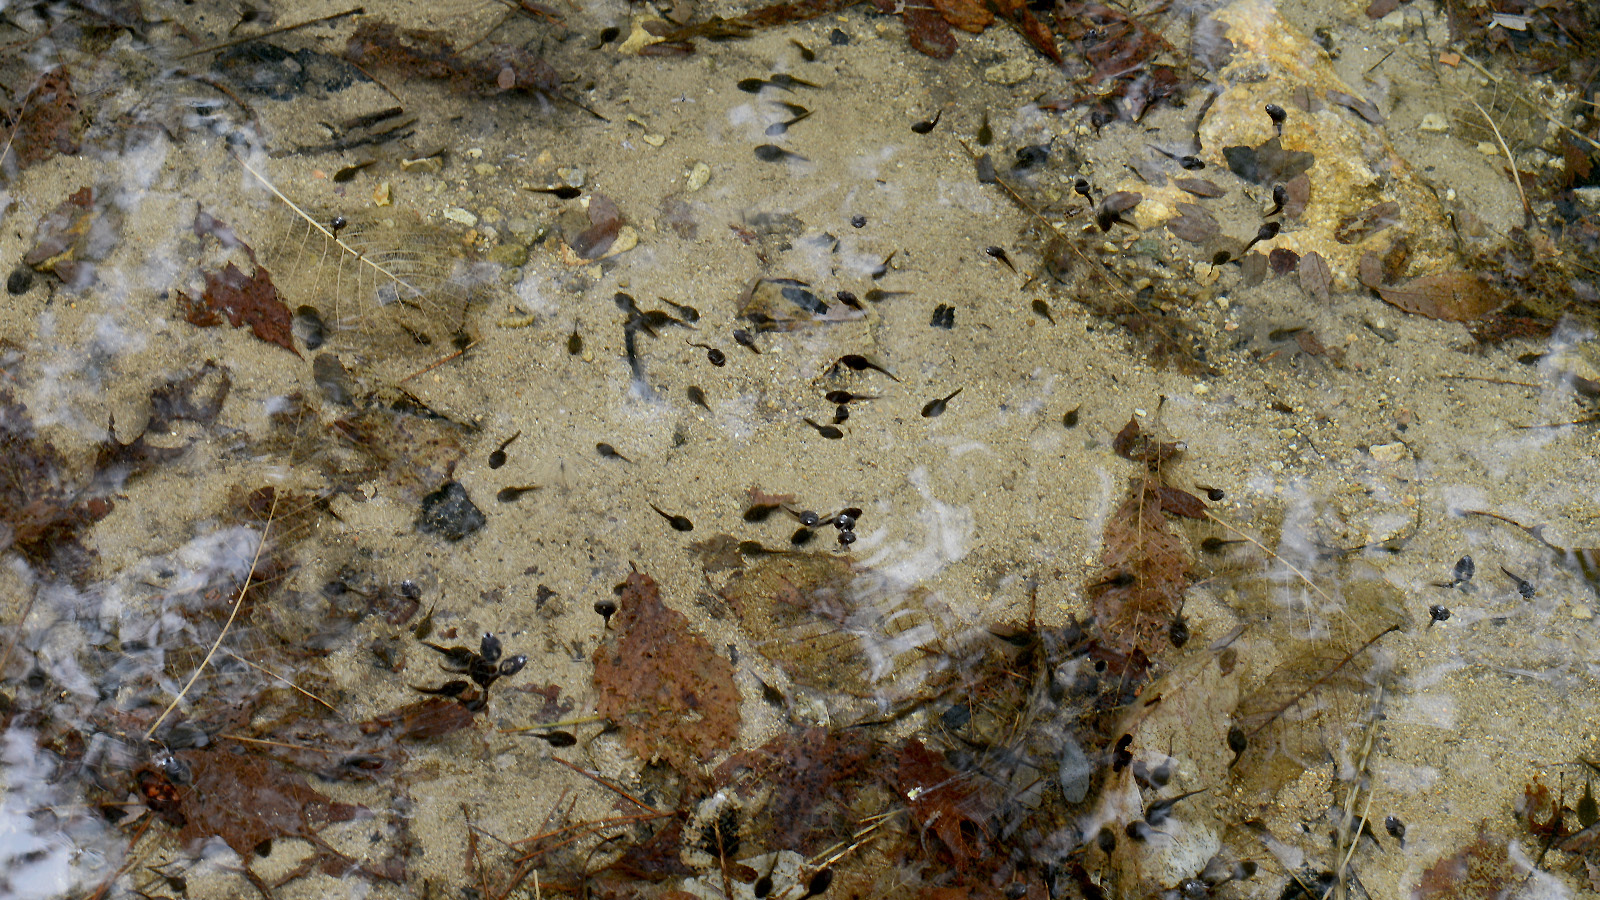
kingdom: Animalia
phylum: Chordata
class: Amphibia
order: Anura
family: Ranidae
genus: Rana
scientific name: Rana huanrenensis
